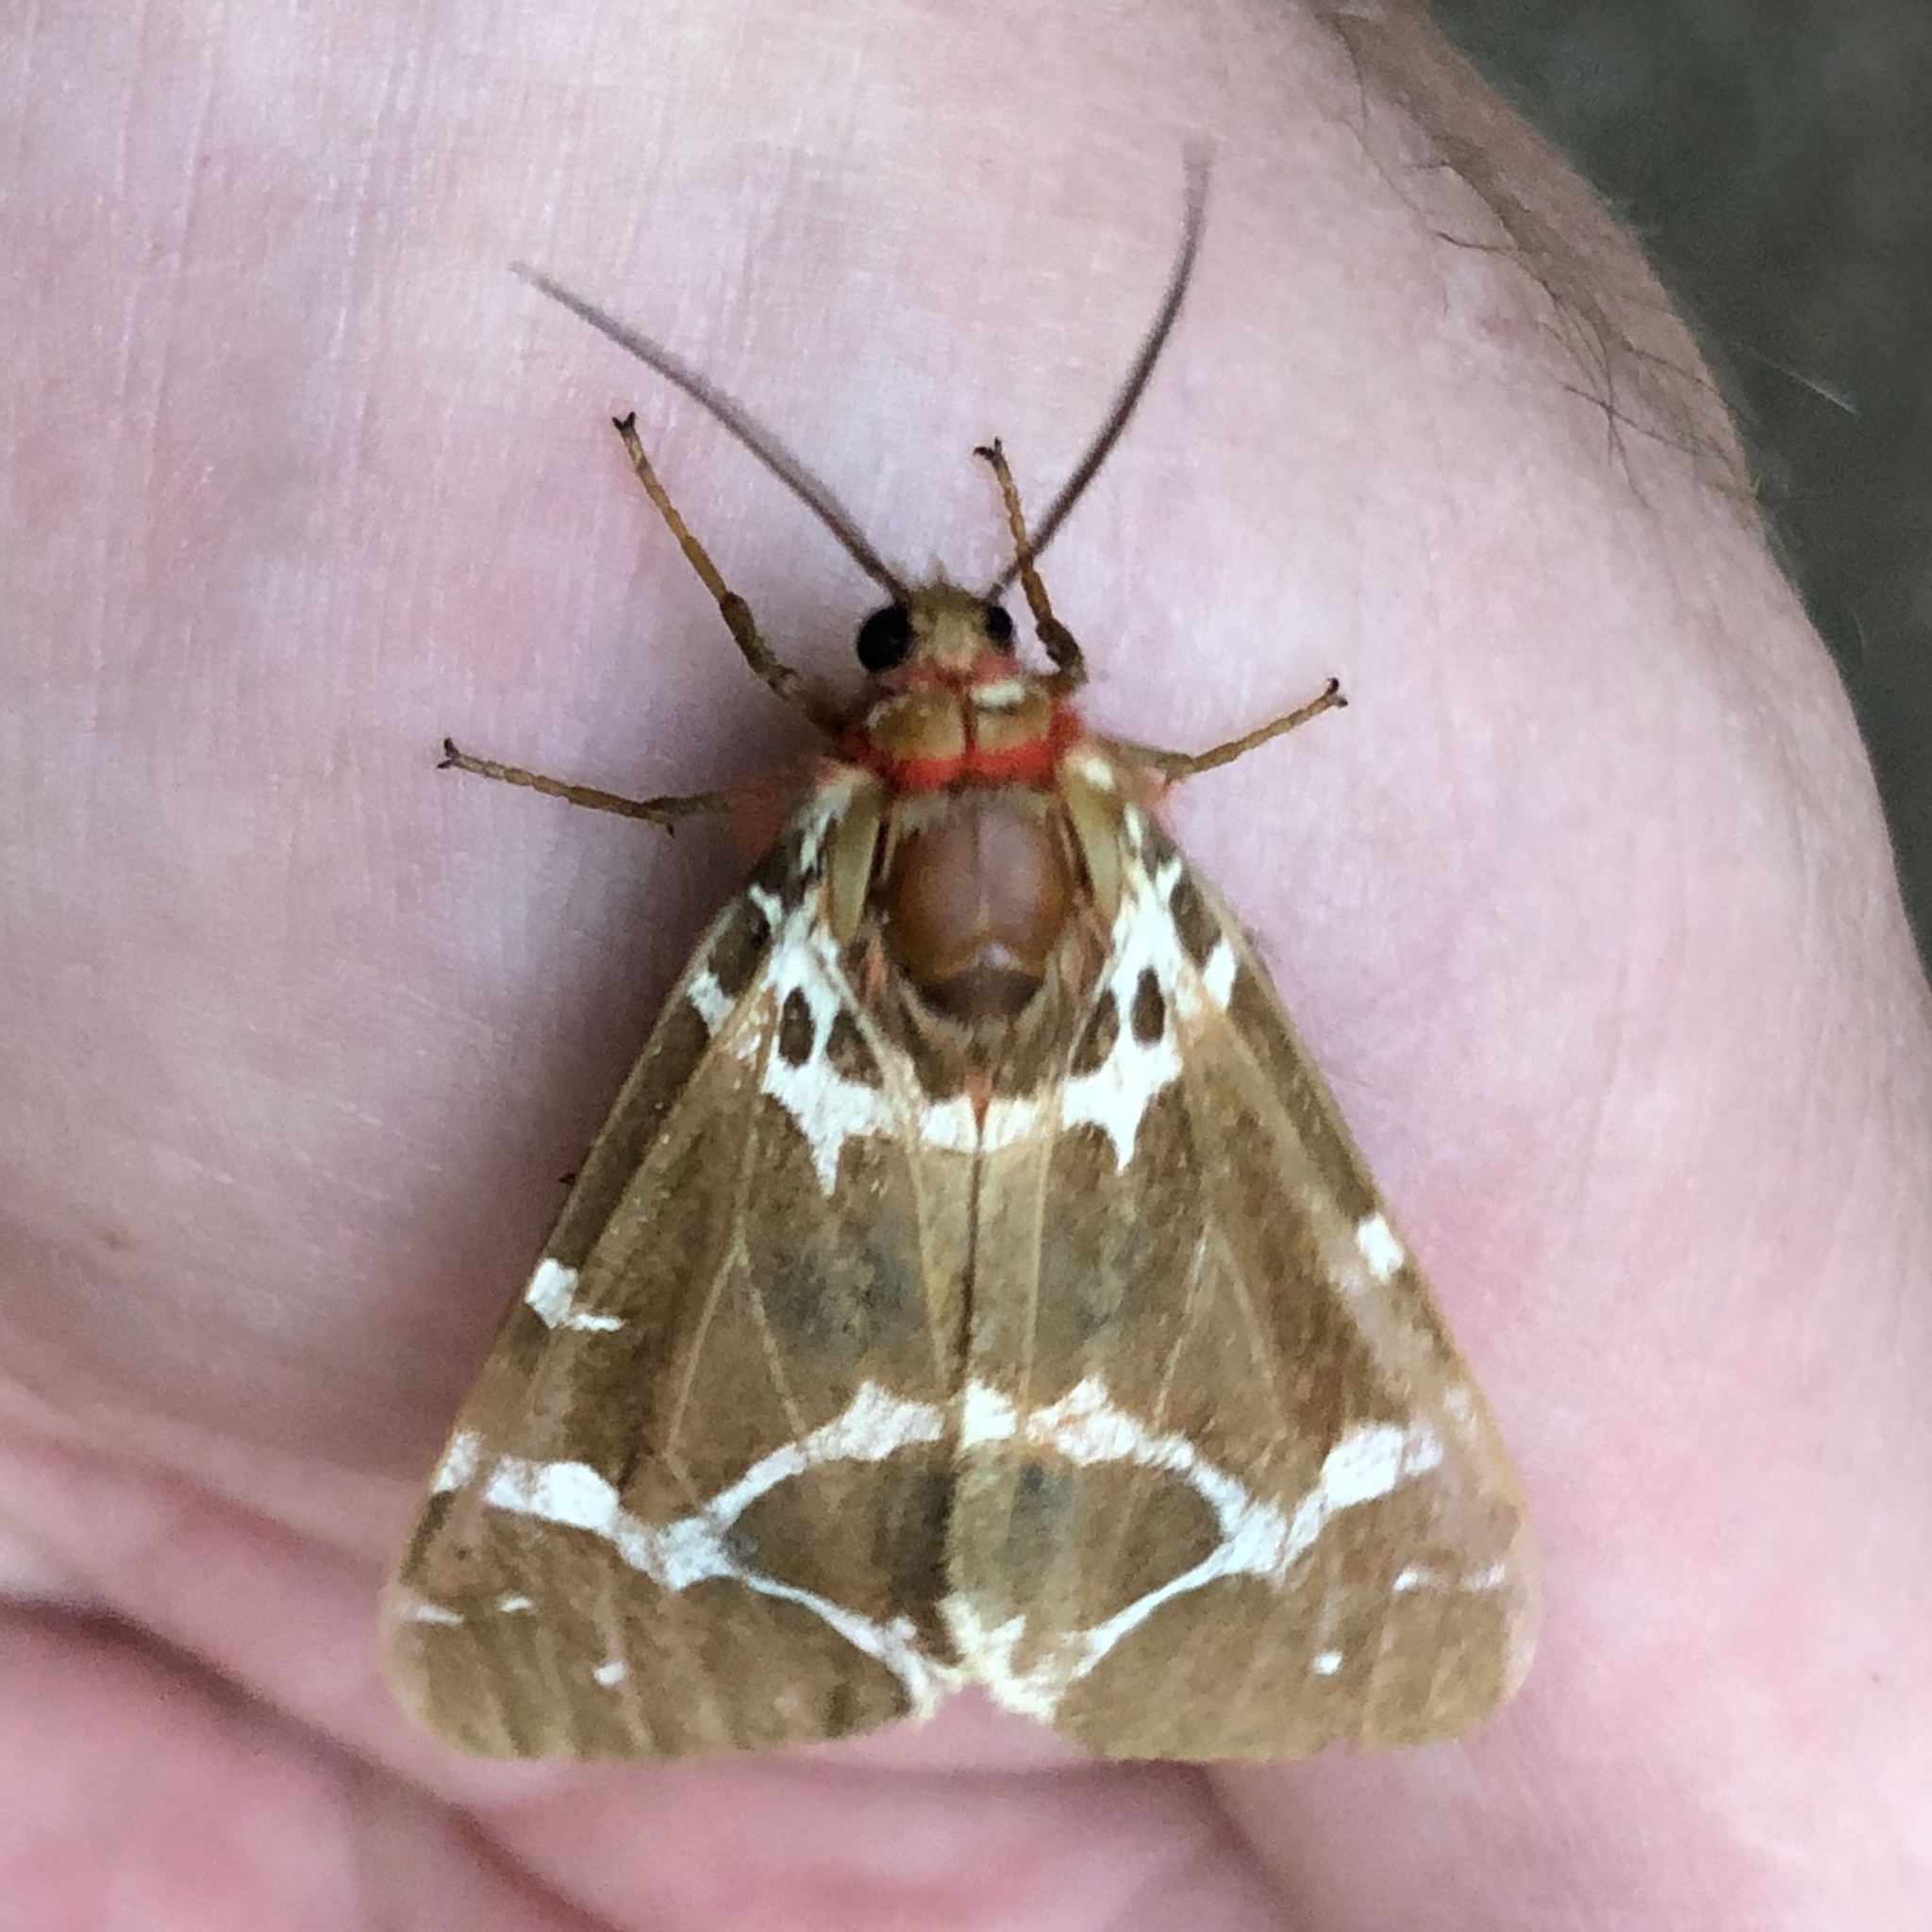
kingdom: Animalia
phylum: Arthropoda
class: Insecta
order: Lepidoptera
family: Erebidae
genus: Arctia
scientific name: Arctia caja
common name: Garden tiger
